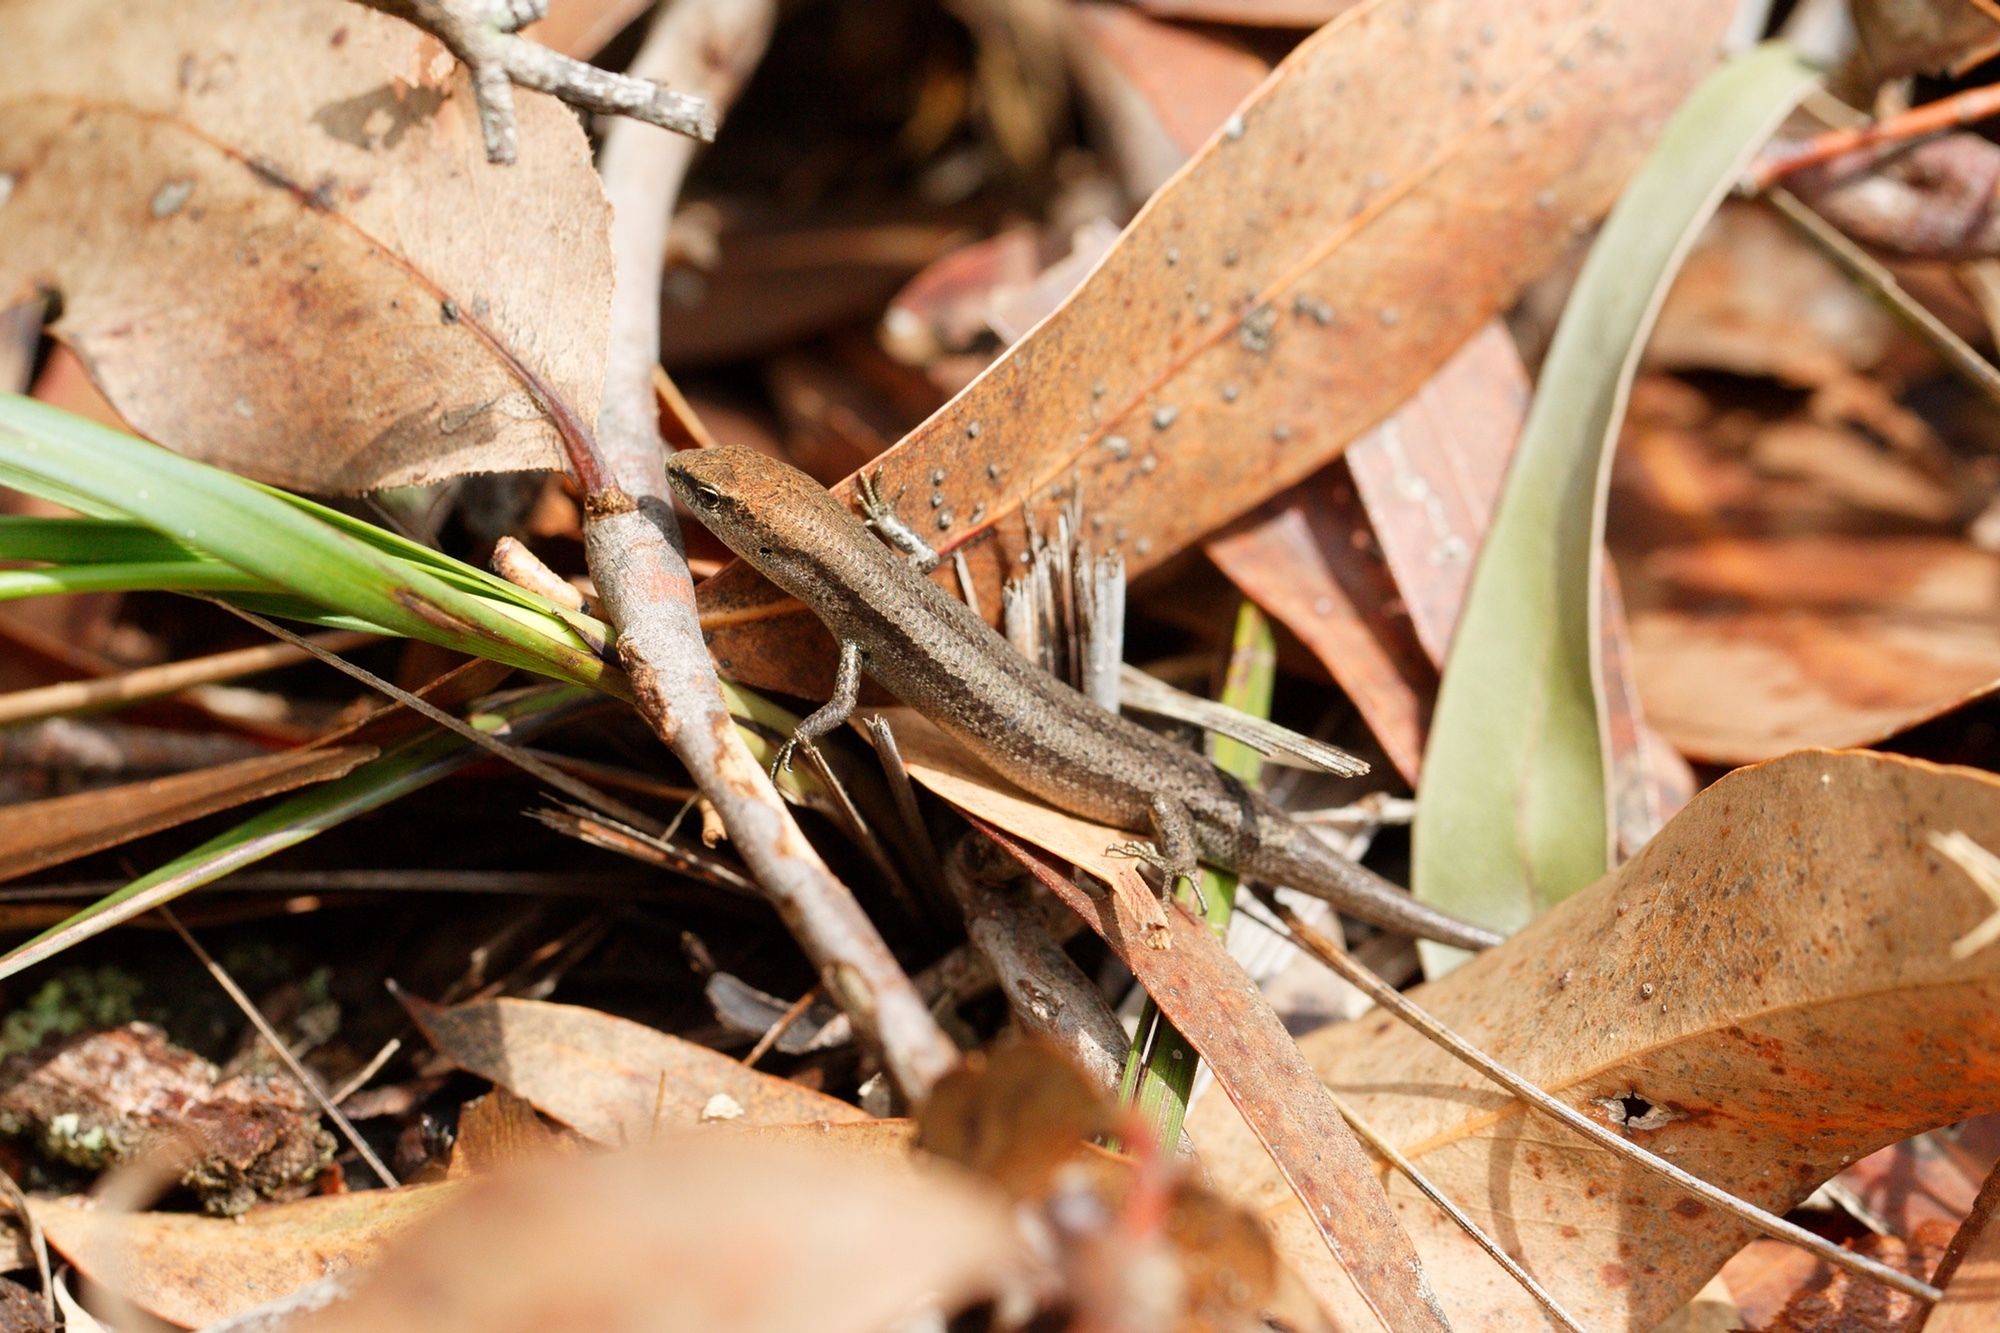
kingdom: Animalia
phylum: Chordata
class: Squamata
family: Scincidae
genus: Lampropholis
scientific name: Lampropholis guichenoti
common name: Garden skink
